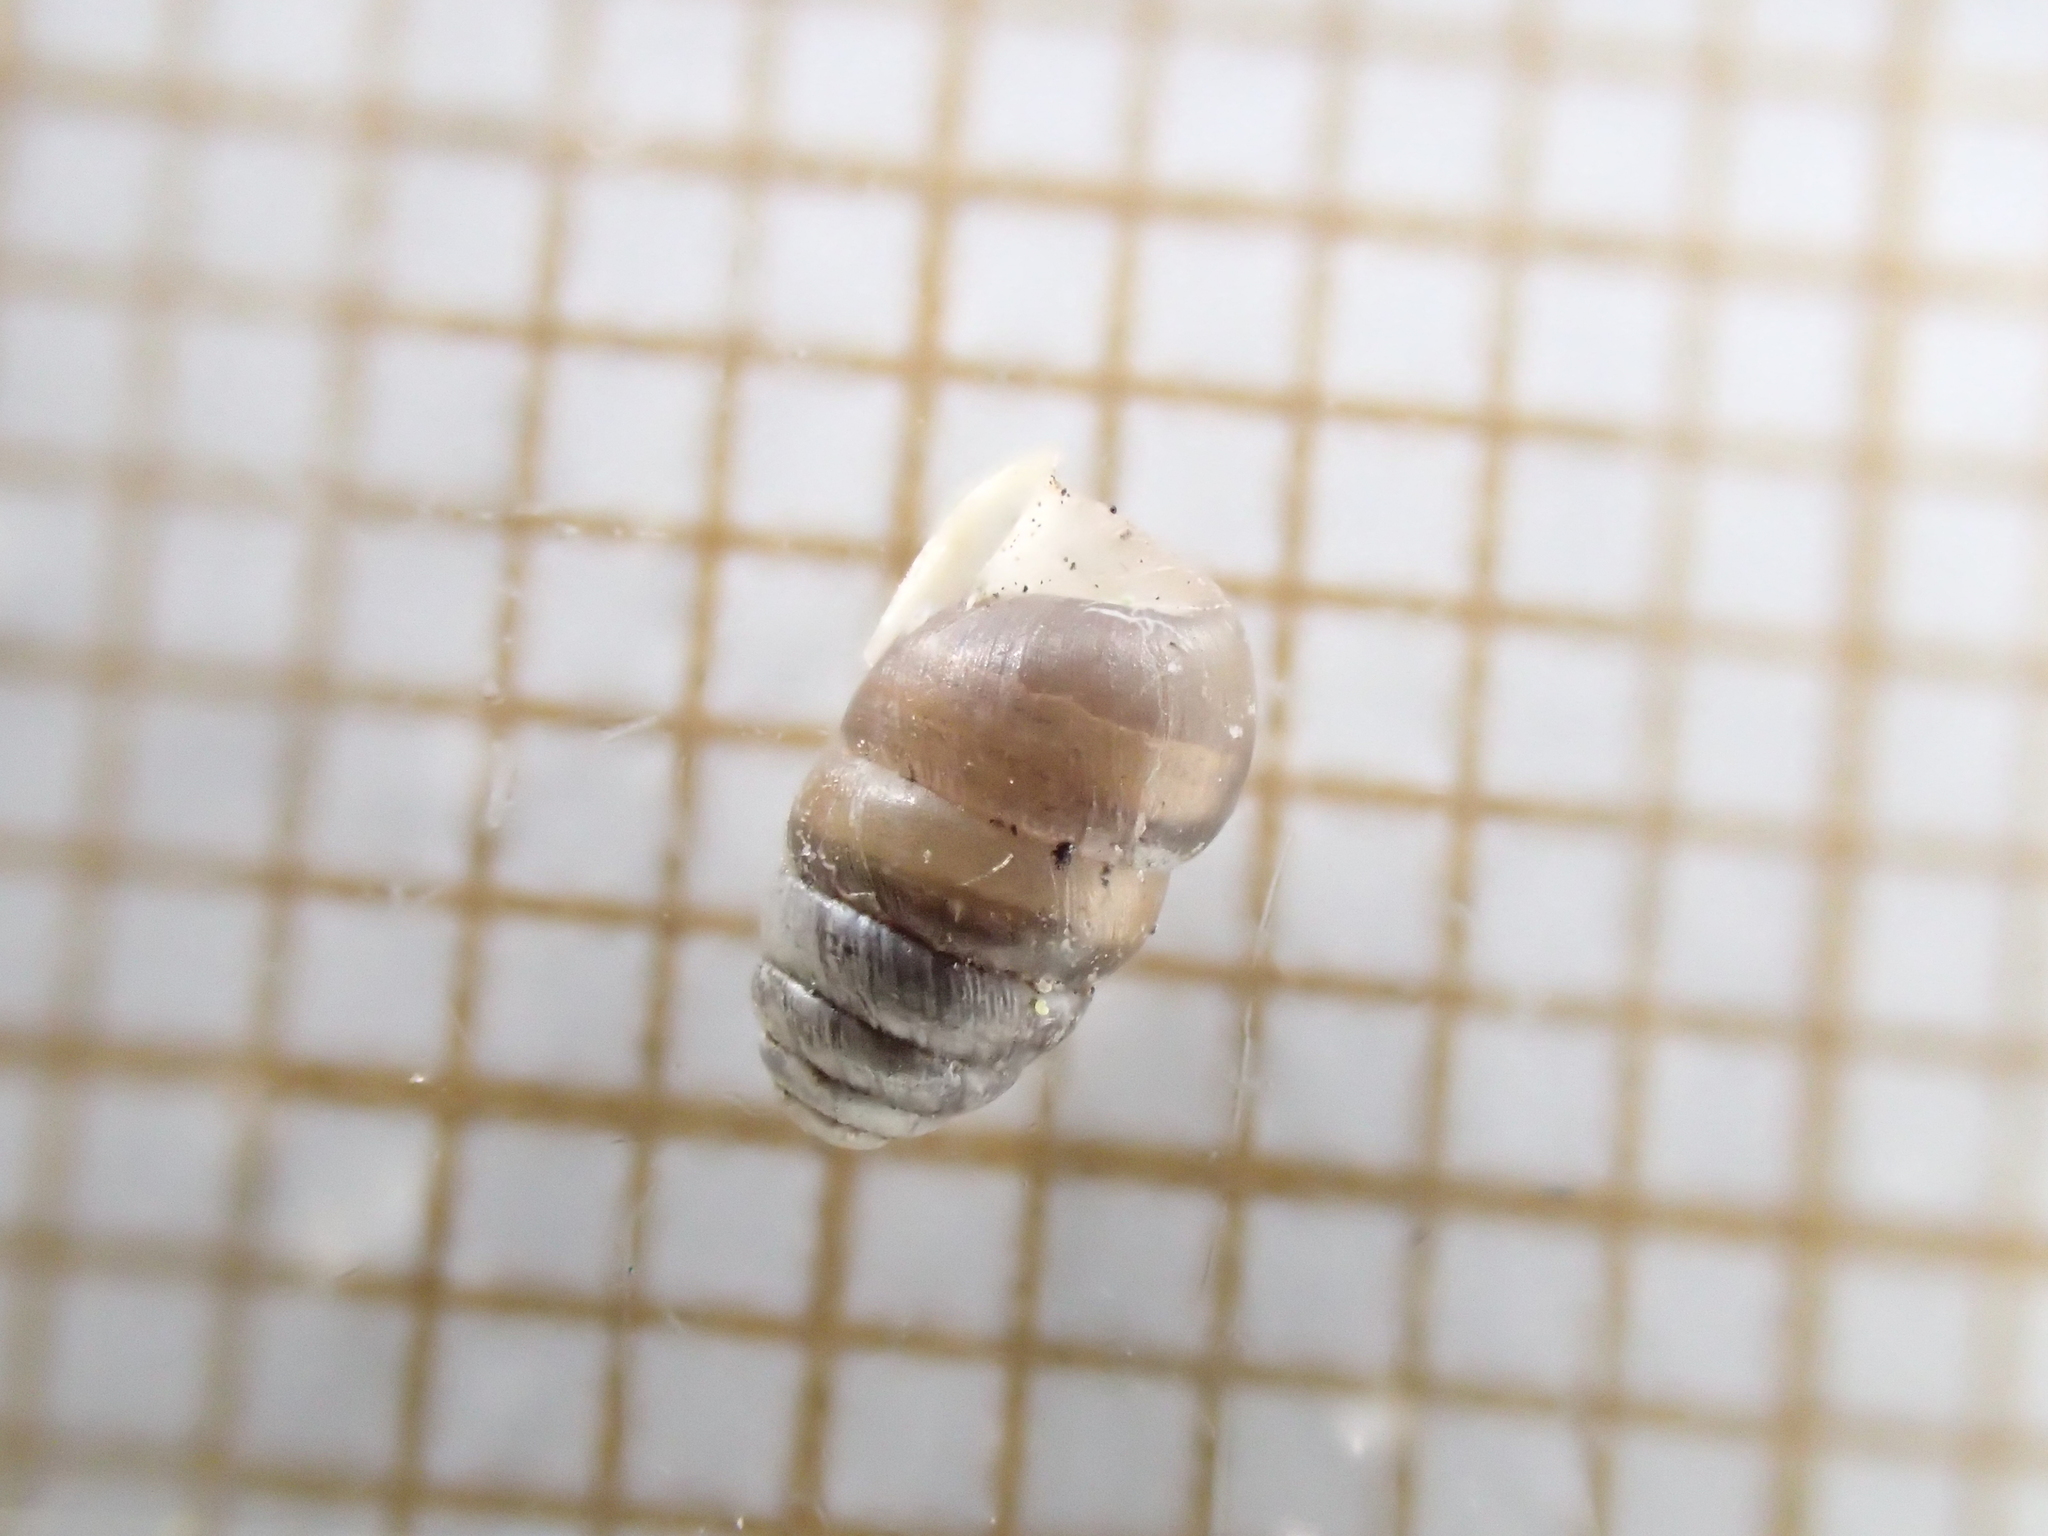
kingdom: Animalia
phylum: Mollusca
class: Gastropoda
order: Stylommatophora
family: Lauriidae
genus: Lauria
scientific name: Lauria cylindracea
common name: Common chrysalis snail
